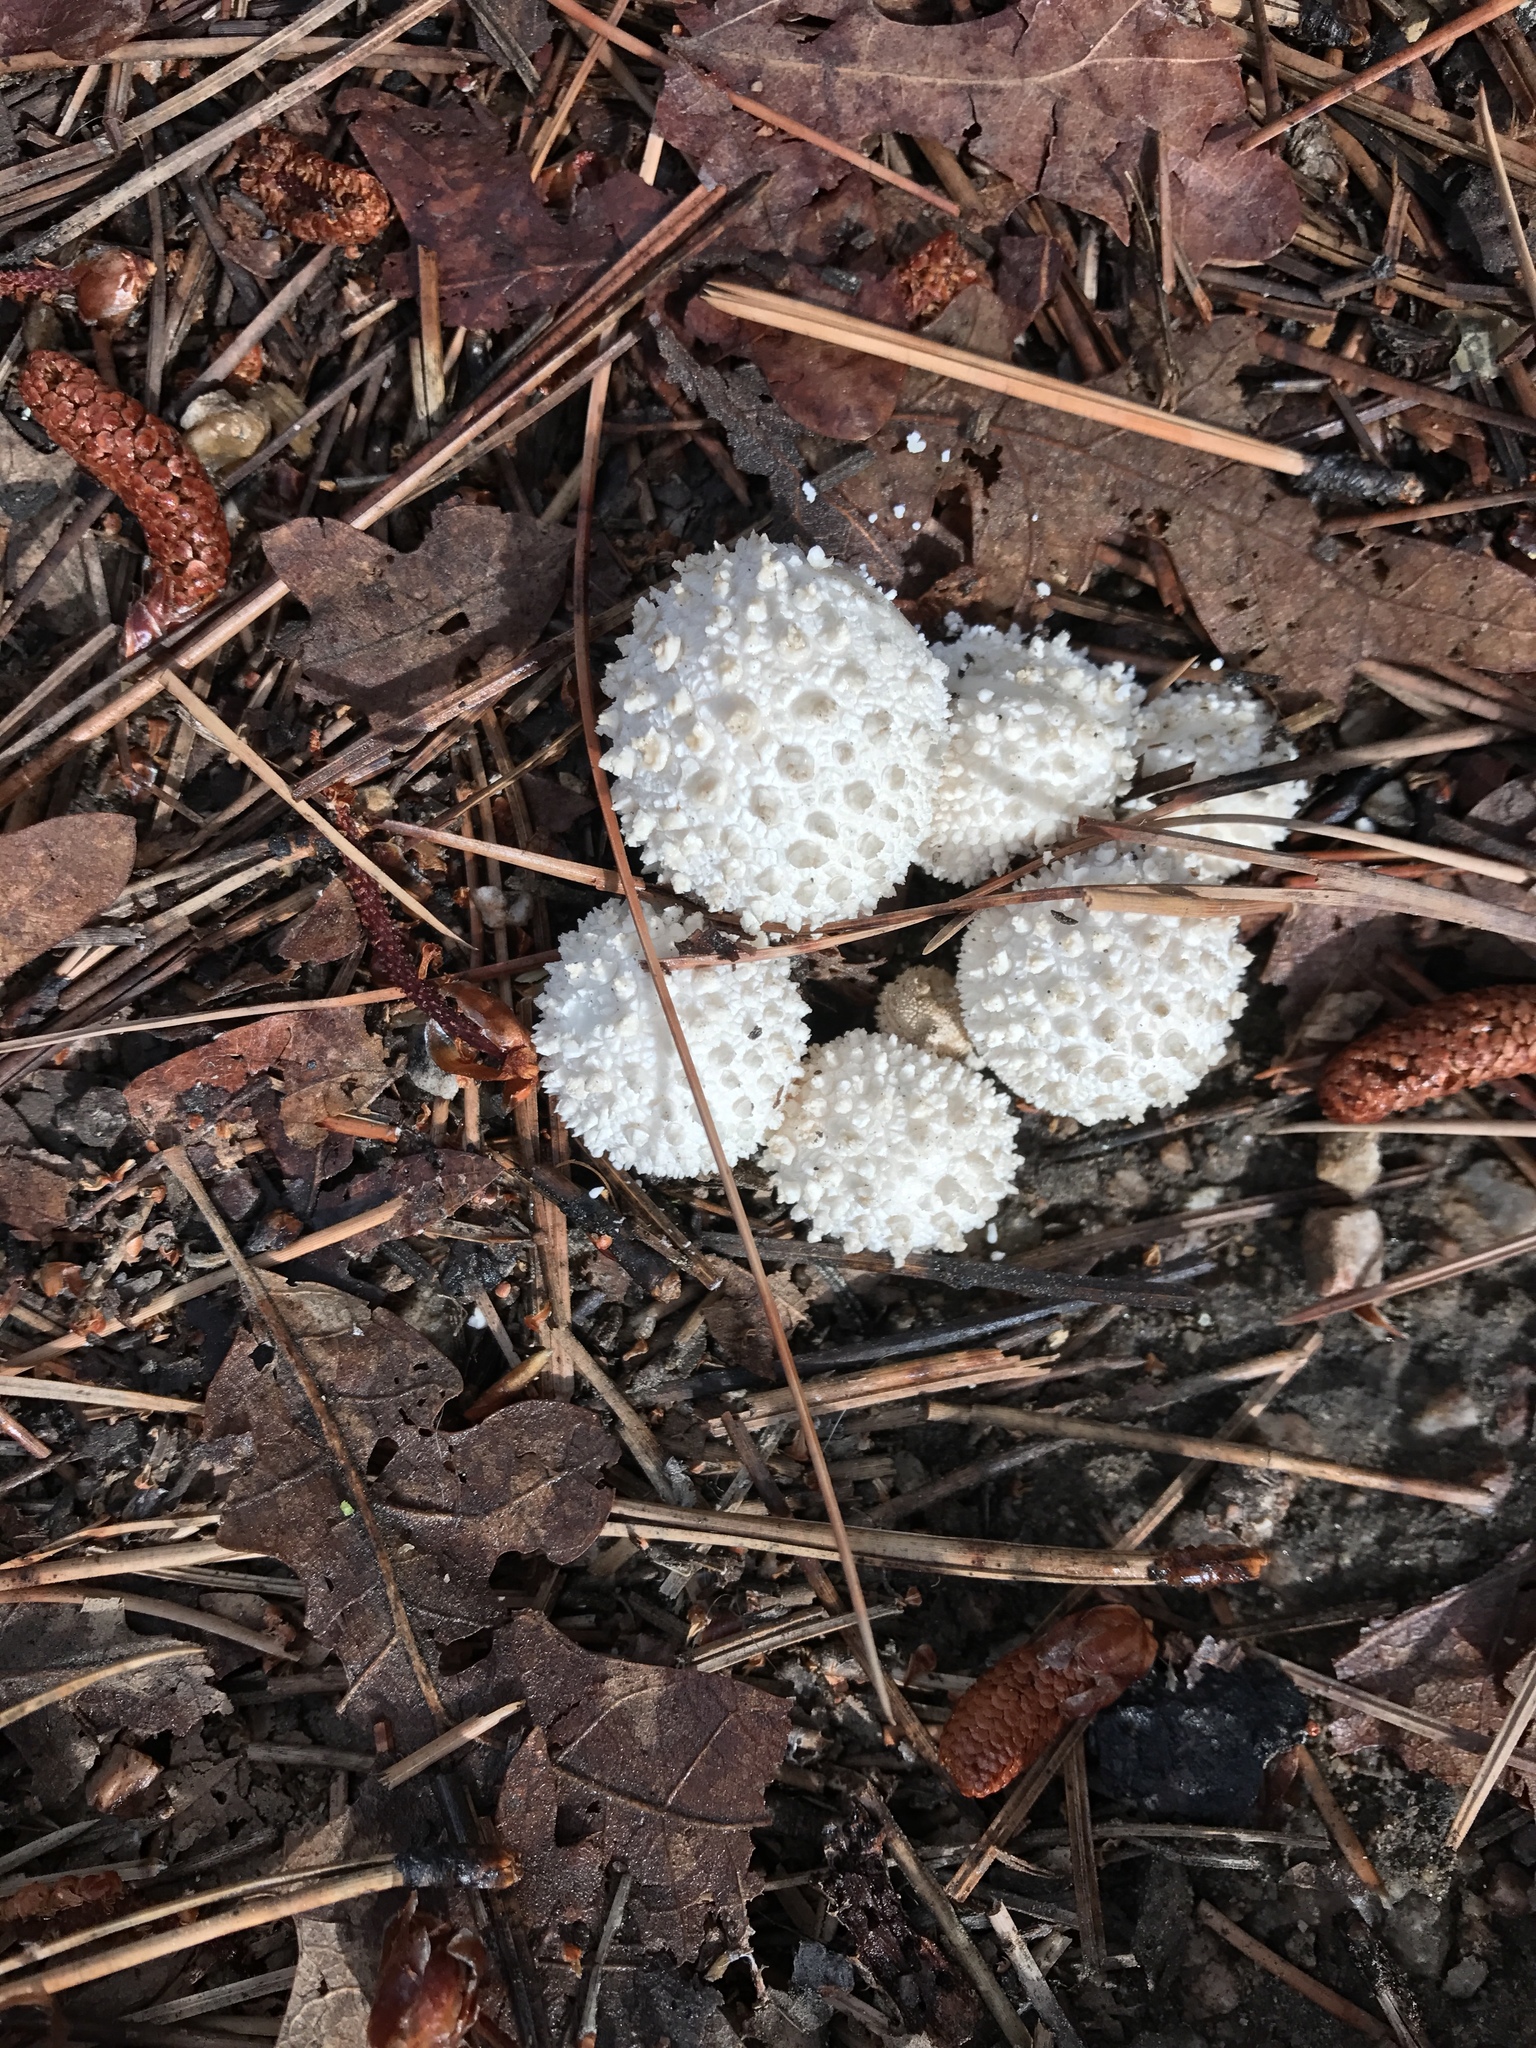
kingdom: Fungi
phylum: Basidiomycota
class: Agaricomycetes
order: Agaricales
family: Lycoperdaceae
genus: Lycoperdon
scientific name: Lycoperdon perlatum
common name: Common puffball
